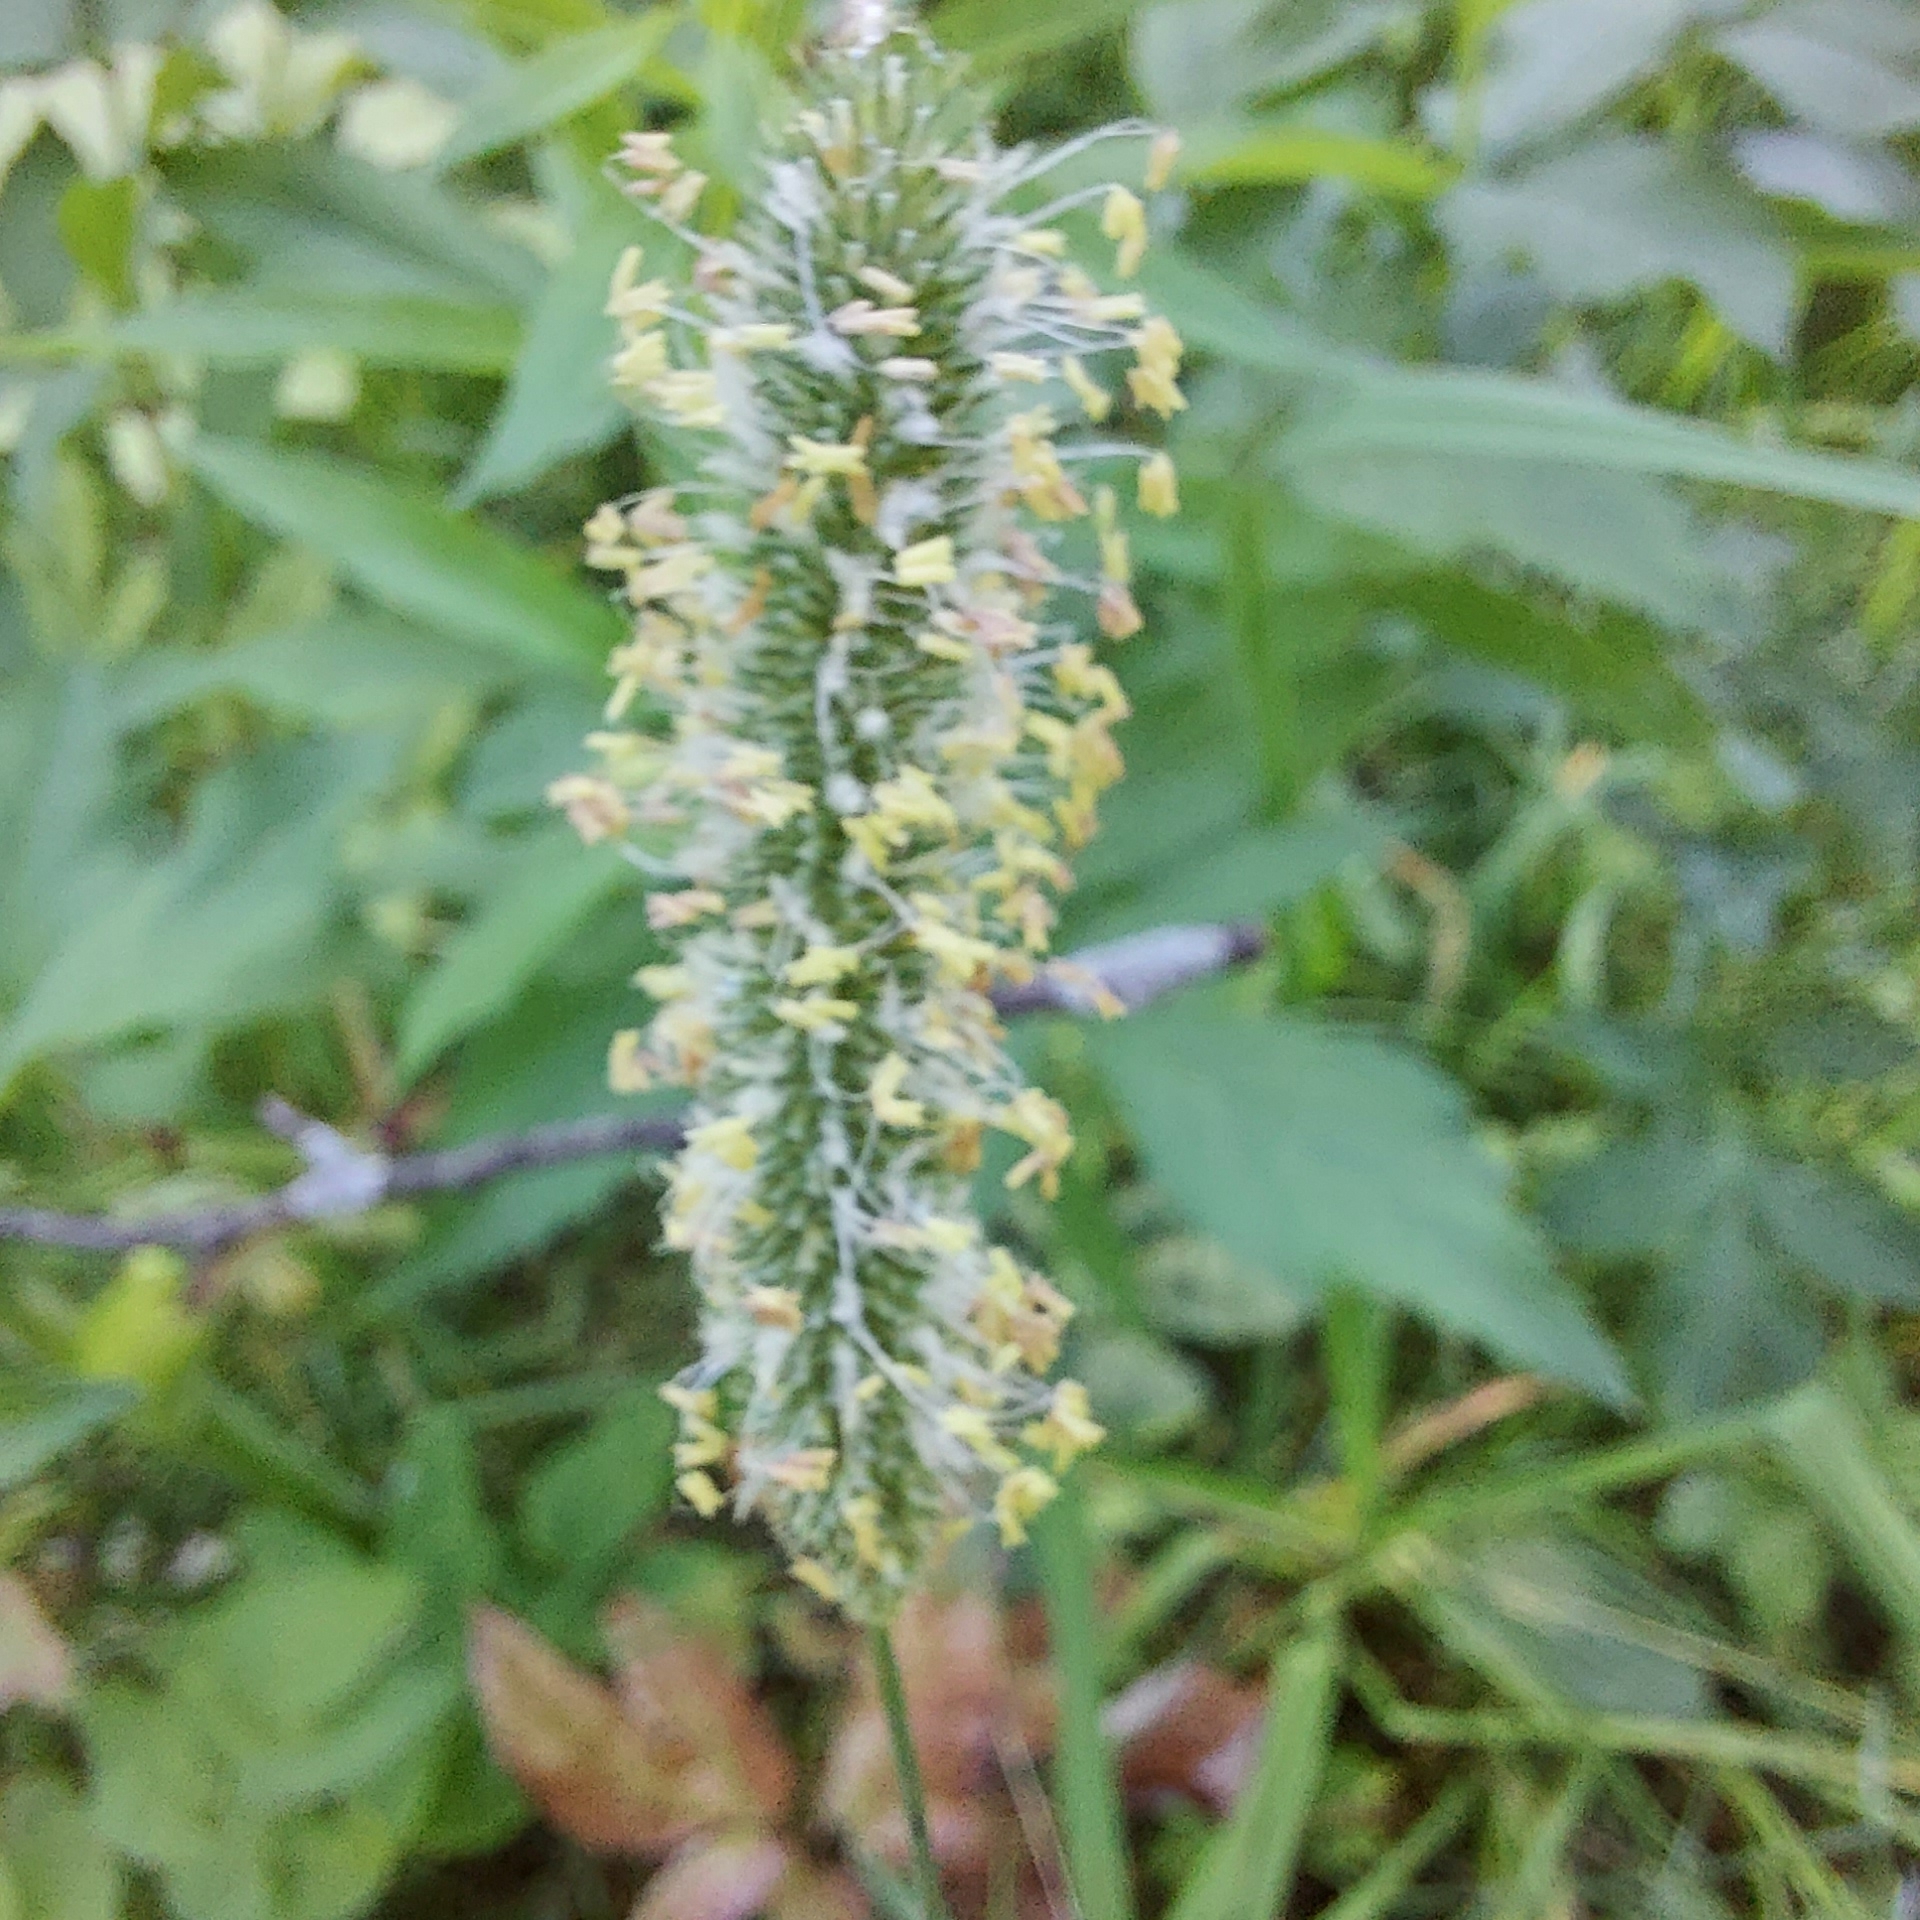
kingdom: Plantae
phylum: Tracheophyta
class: Liliopsida
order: Poales
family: Poaceae
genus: Phleum
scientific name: Phleum pratense
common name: Timothy grass
